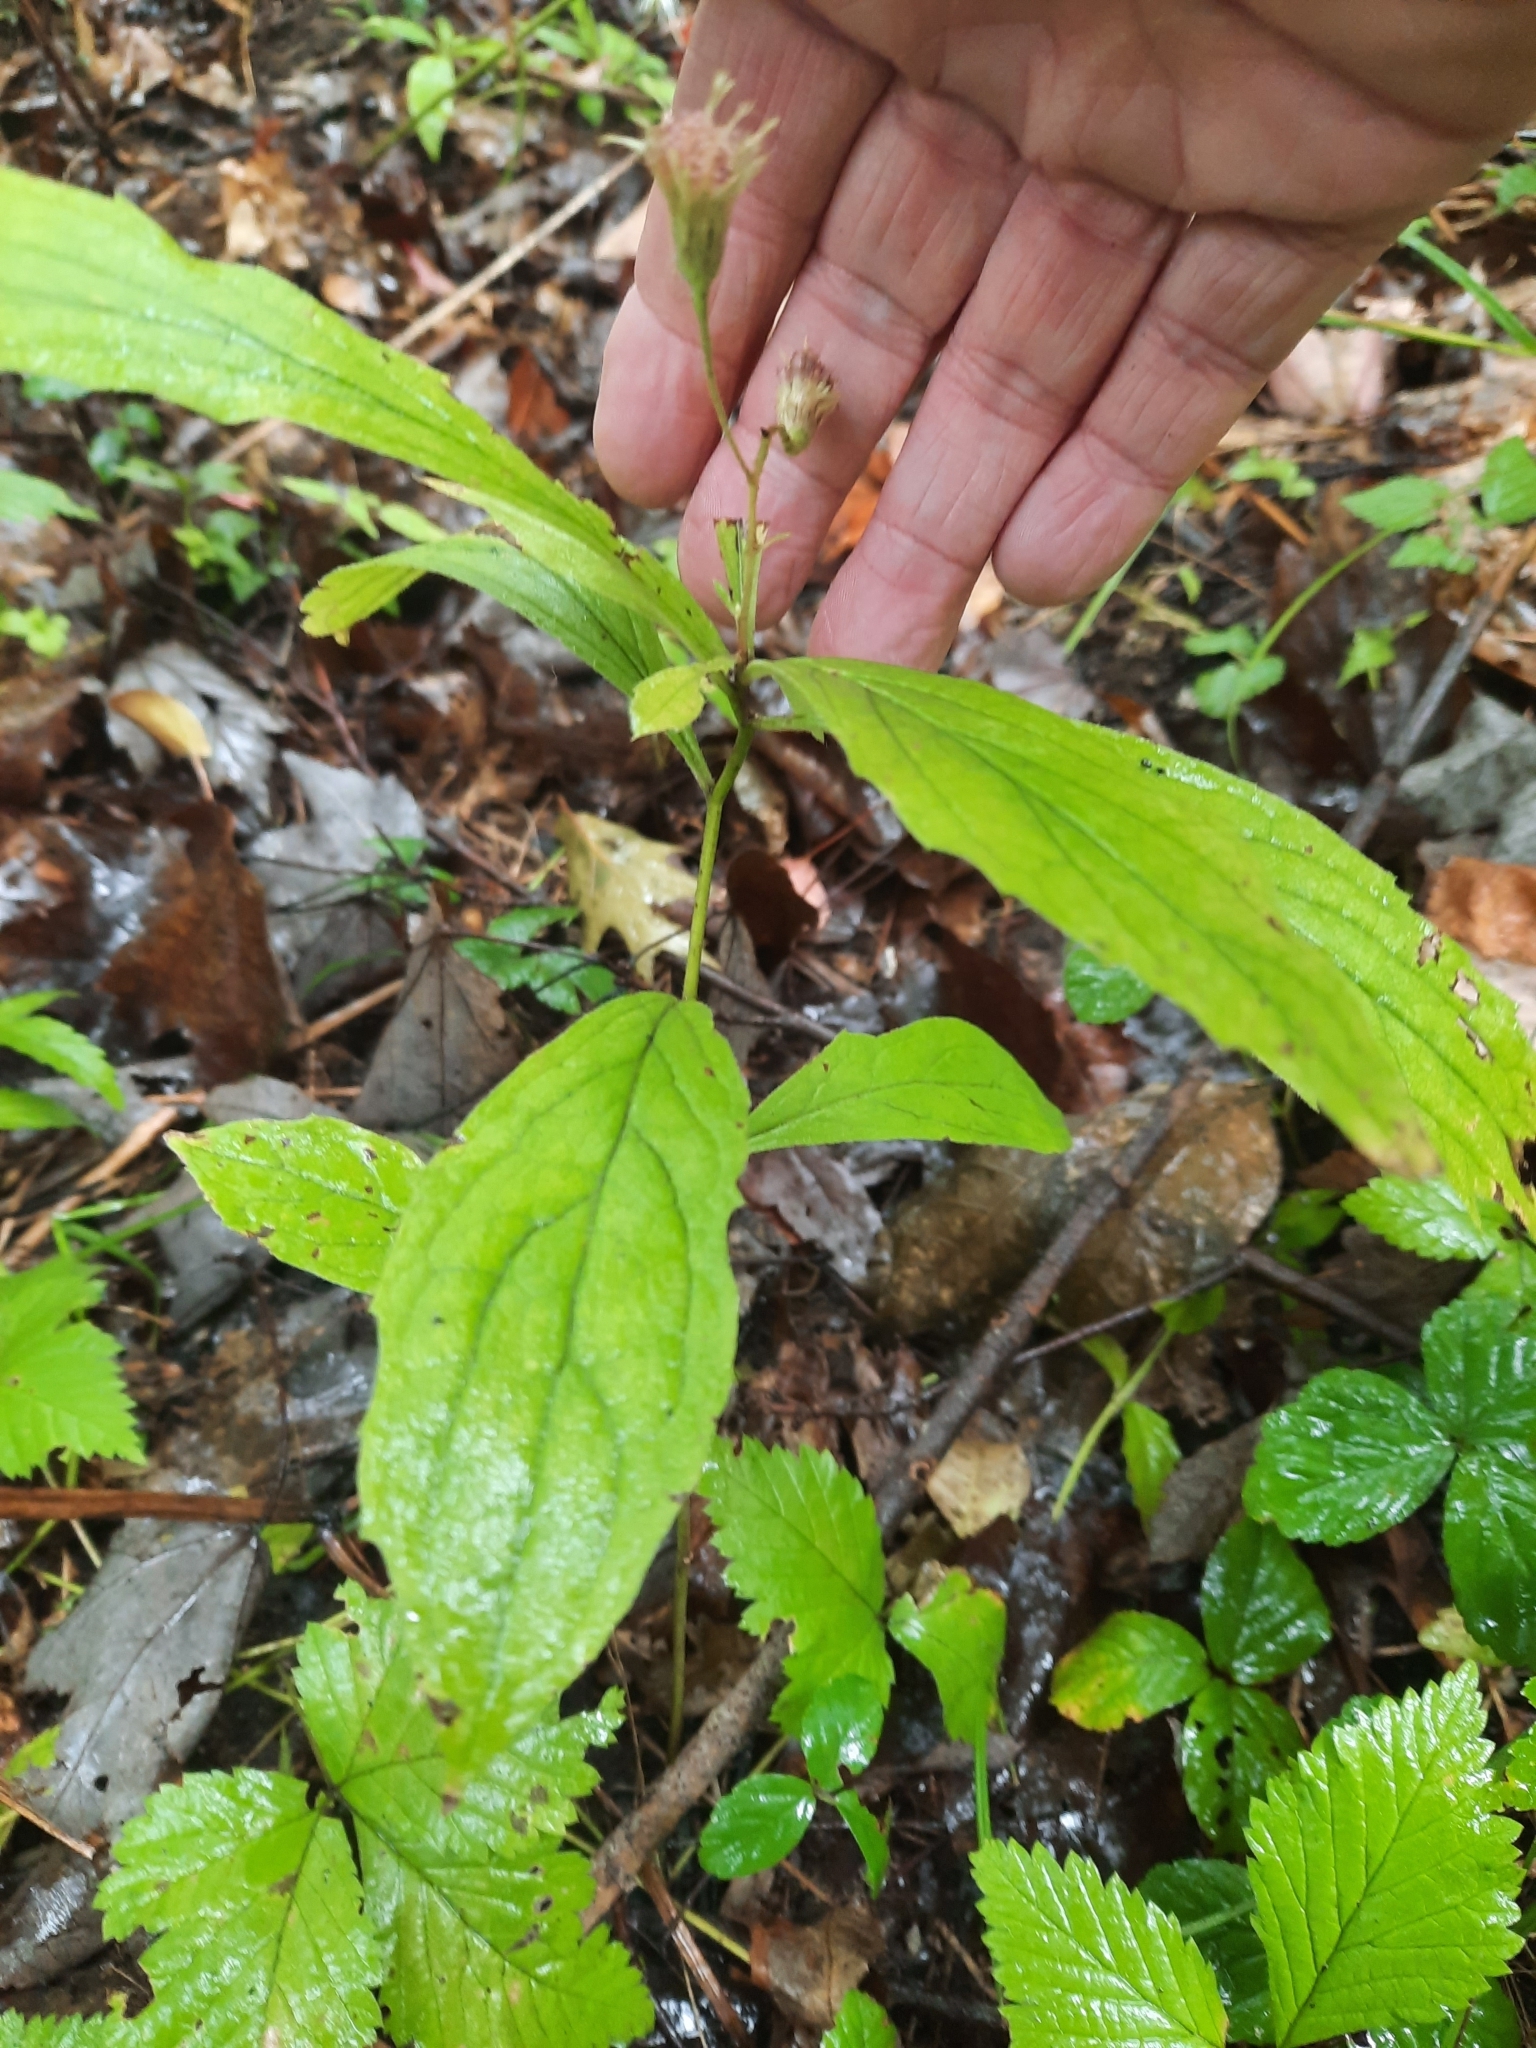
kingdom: Plantae
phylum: Tracheophyta
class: Magnoliopsida
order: Asterales
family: Asteraceae
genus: Oclemena
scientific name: Oclemena acuminata
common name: Mountain aster
